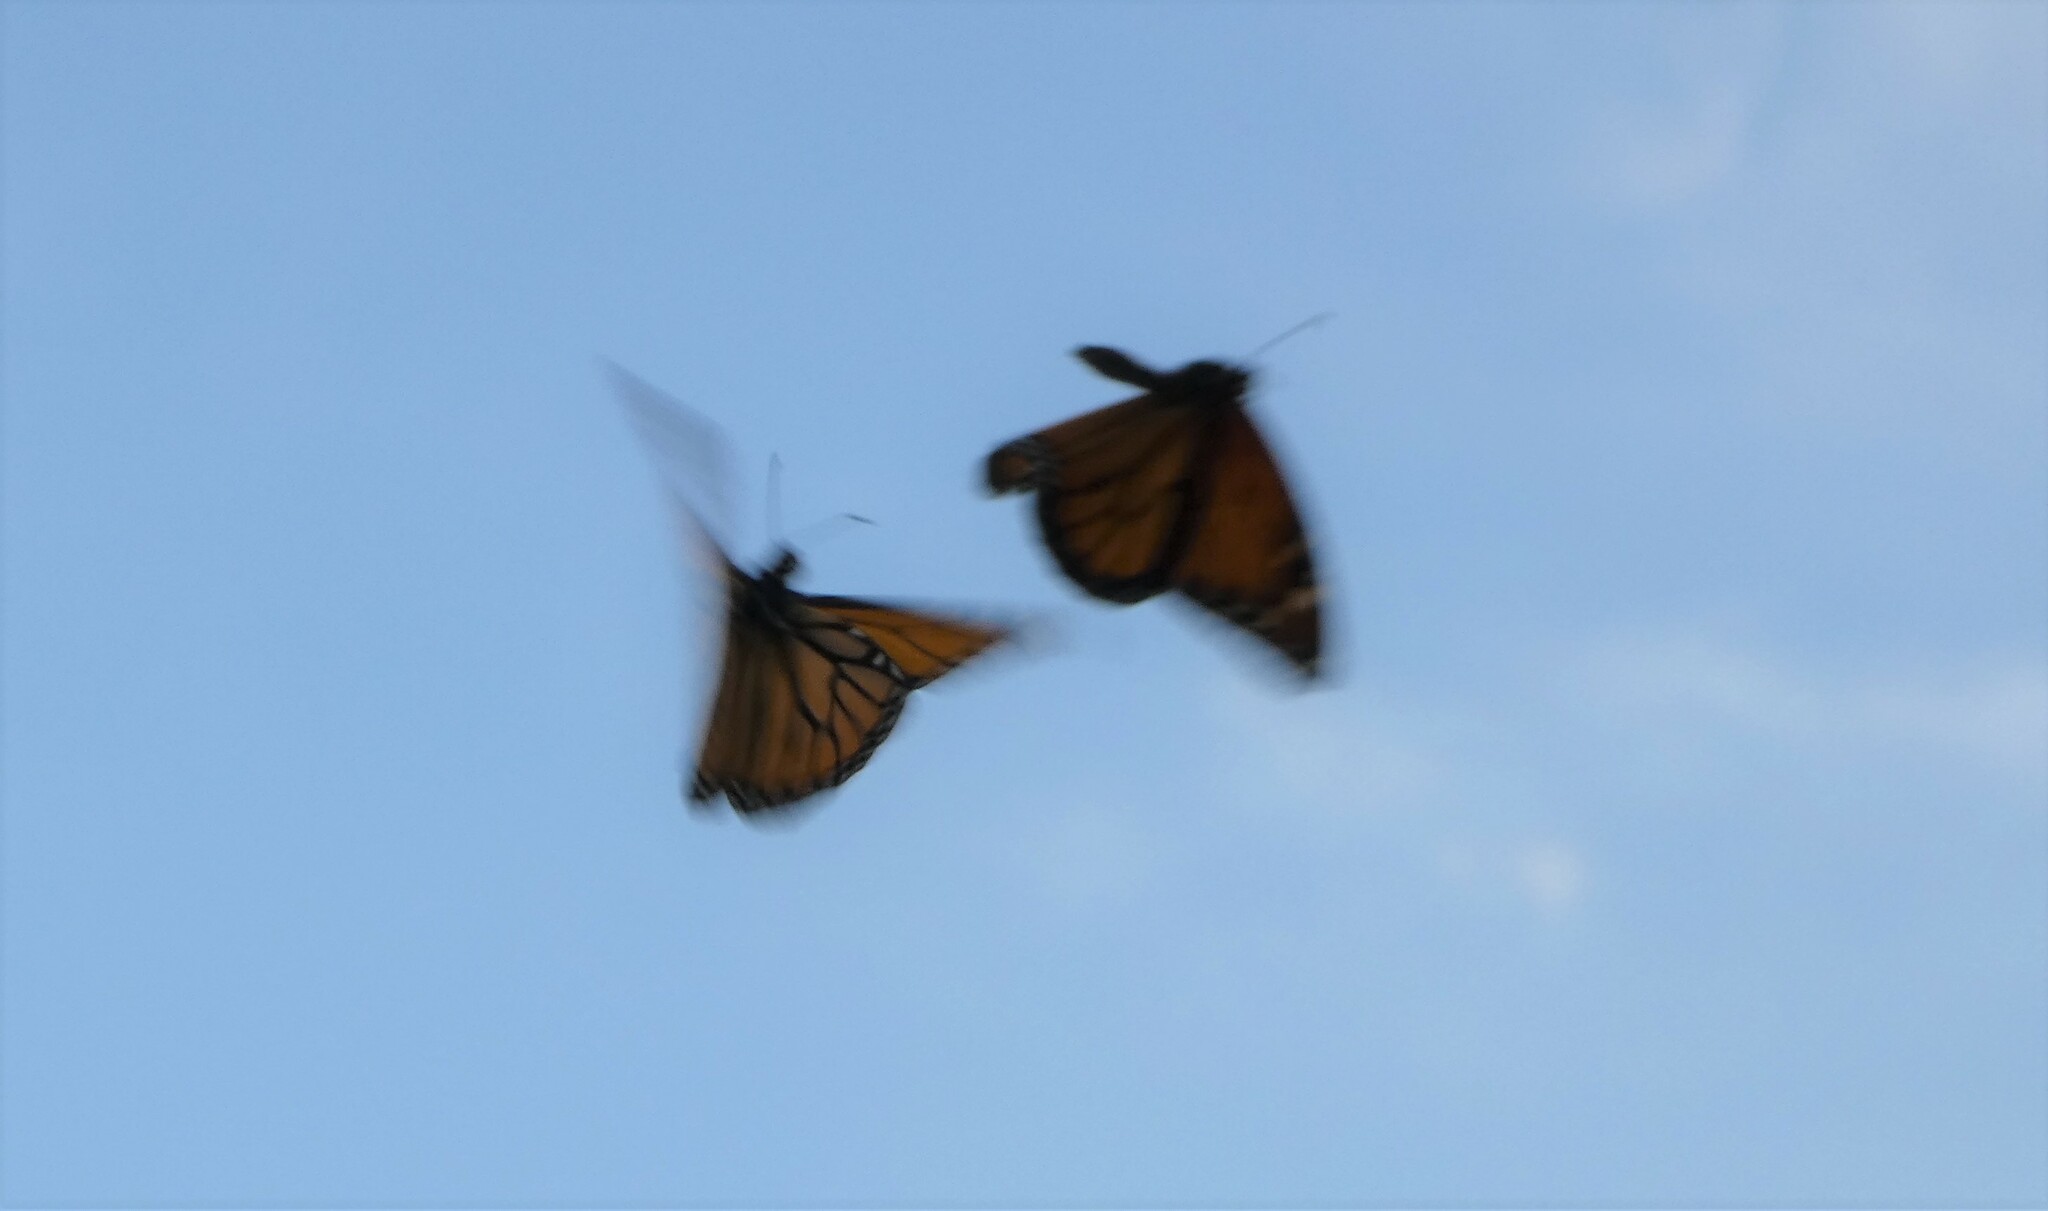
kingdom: Animalia
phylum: Arthropoda
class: Insecta
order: Lepidoptera
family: Nymphalidae
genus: Danaus
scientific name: Danaus plexippus
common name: Monarch
